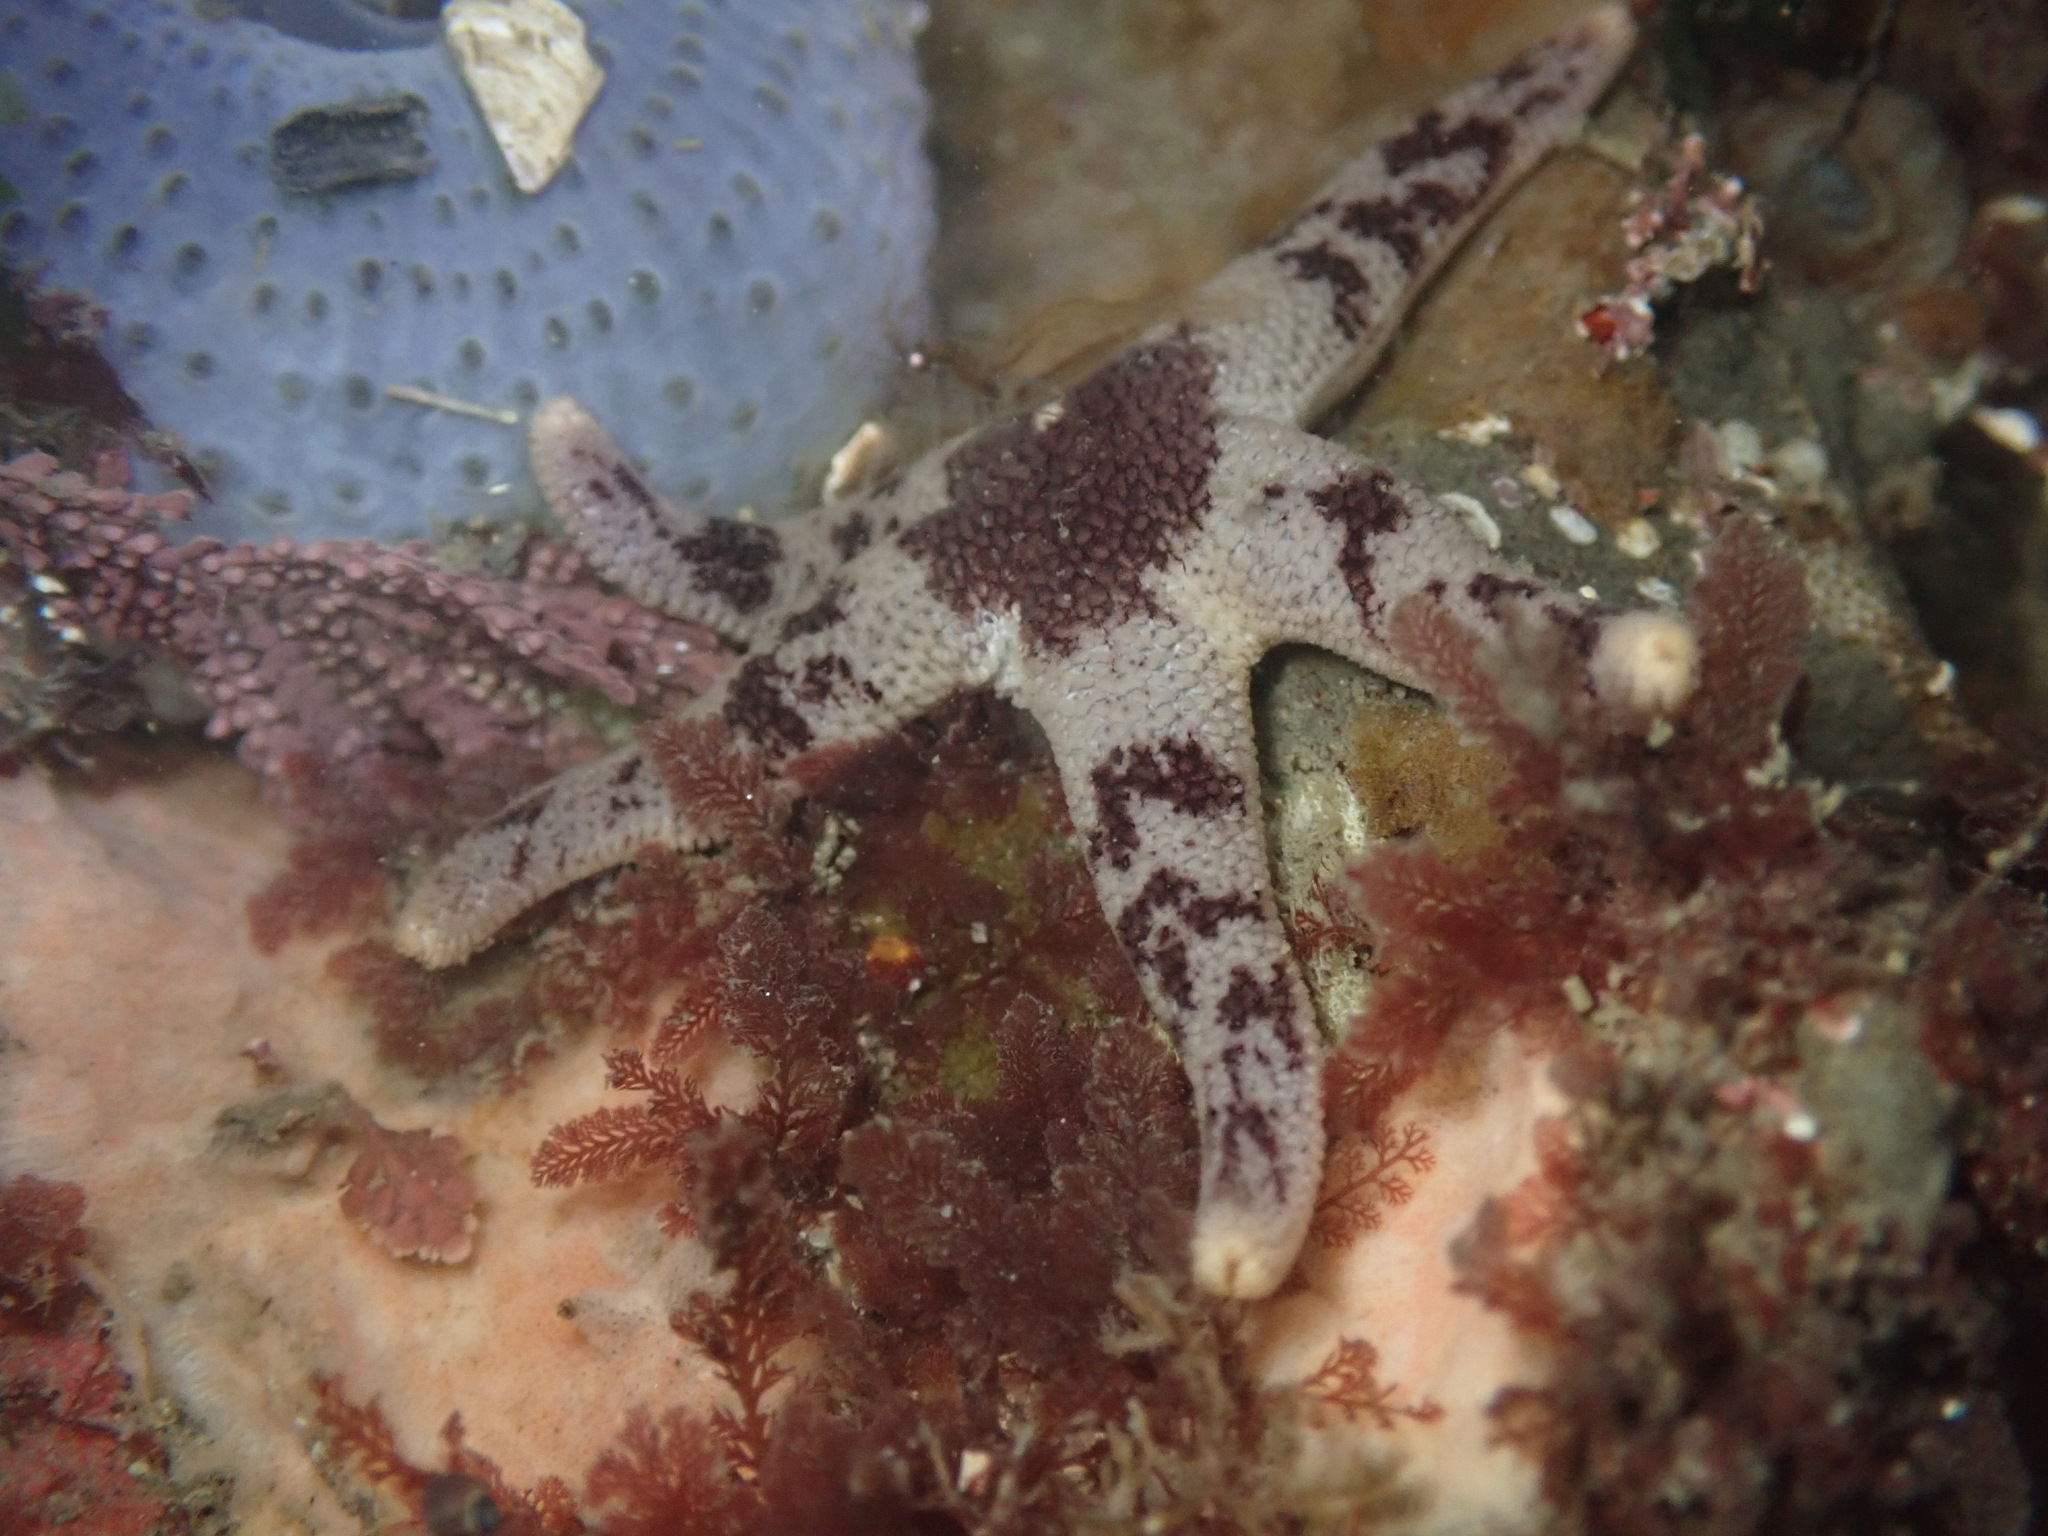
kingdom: Animalia
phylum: Echinodermata
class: Asteroidea
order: Spinulosida
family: Echinasteridae
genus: Henricia
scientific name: Henricia pumila
